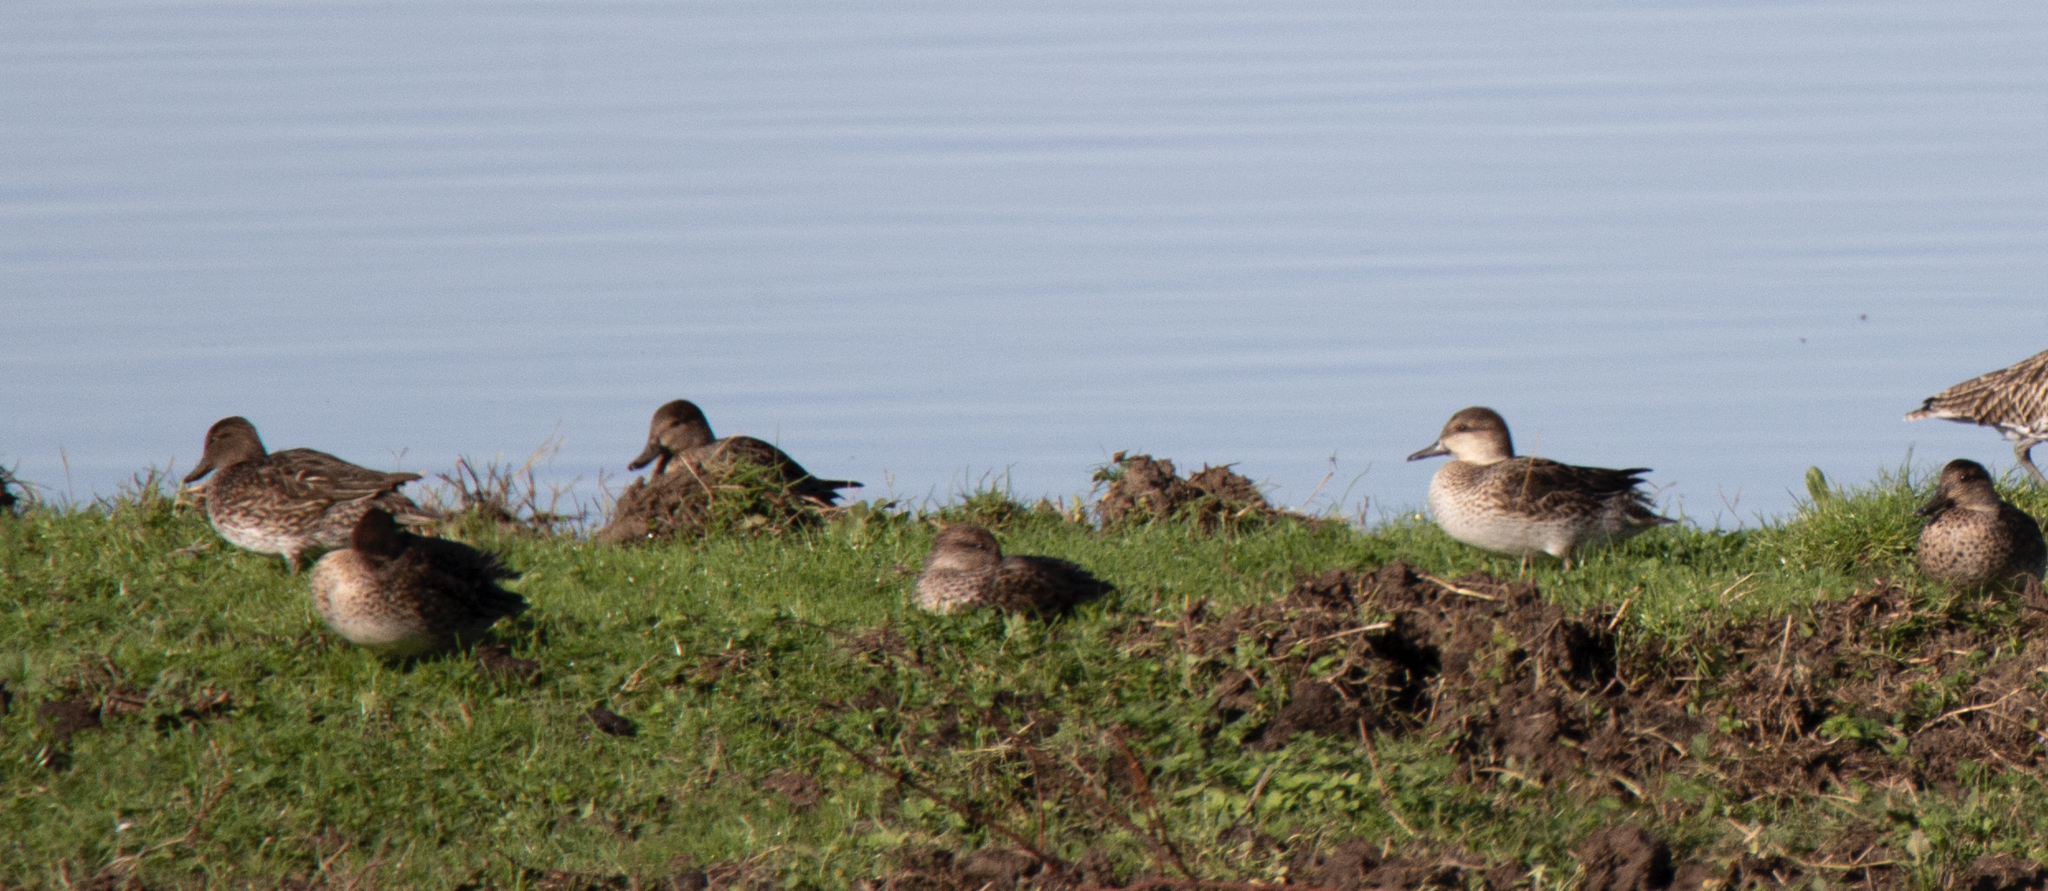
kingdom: Animalia
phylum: Chordata
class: Aves
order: Anseriformes
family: Anatidae
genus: Anas
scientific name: Anas crecca
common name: Eurasian teal
